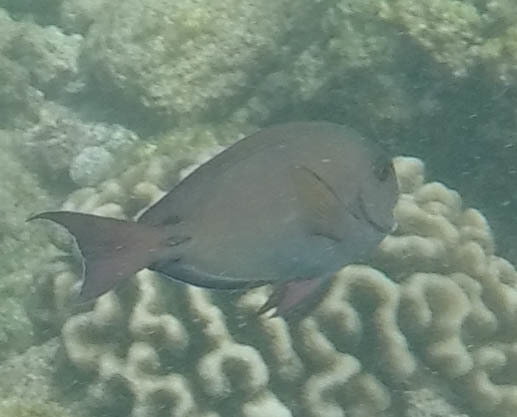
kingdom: Animalia
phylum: Chordata
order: Perciformes
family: Acanthuridae
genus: Acanthurus
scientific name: Acanthurus nigrofuscus
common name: Blackspot surgeonfish
